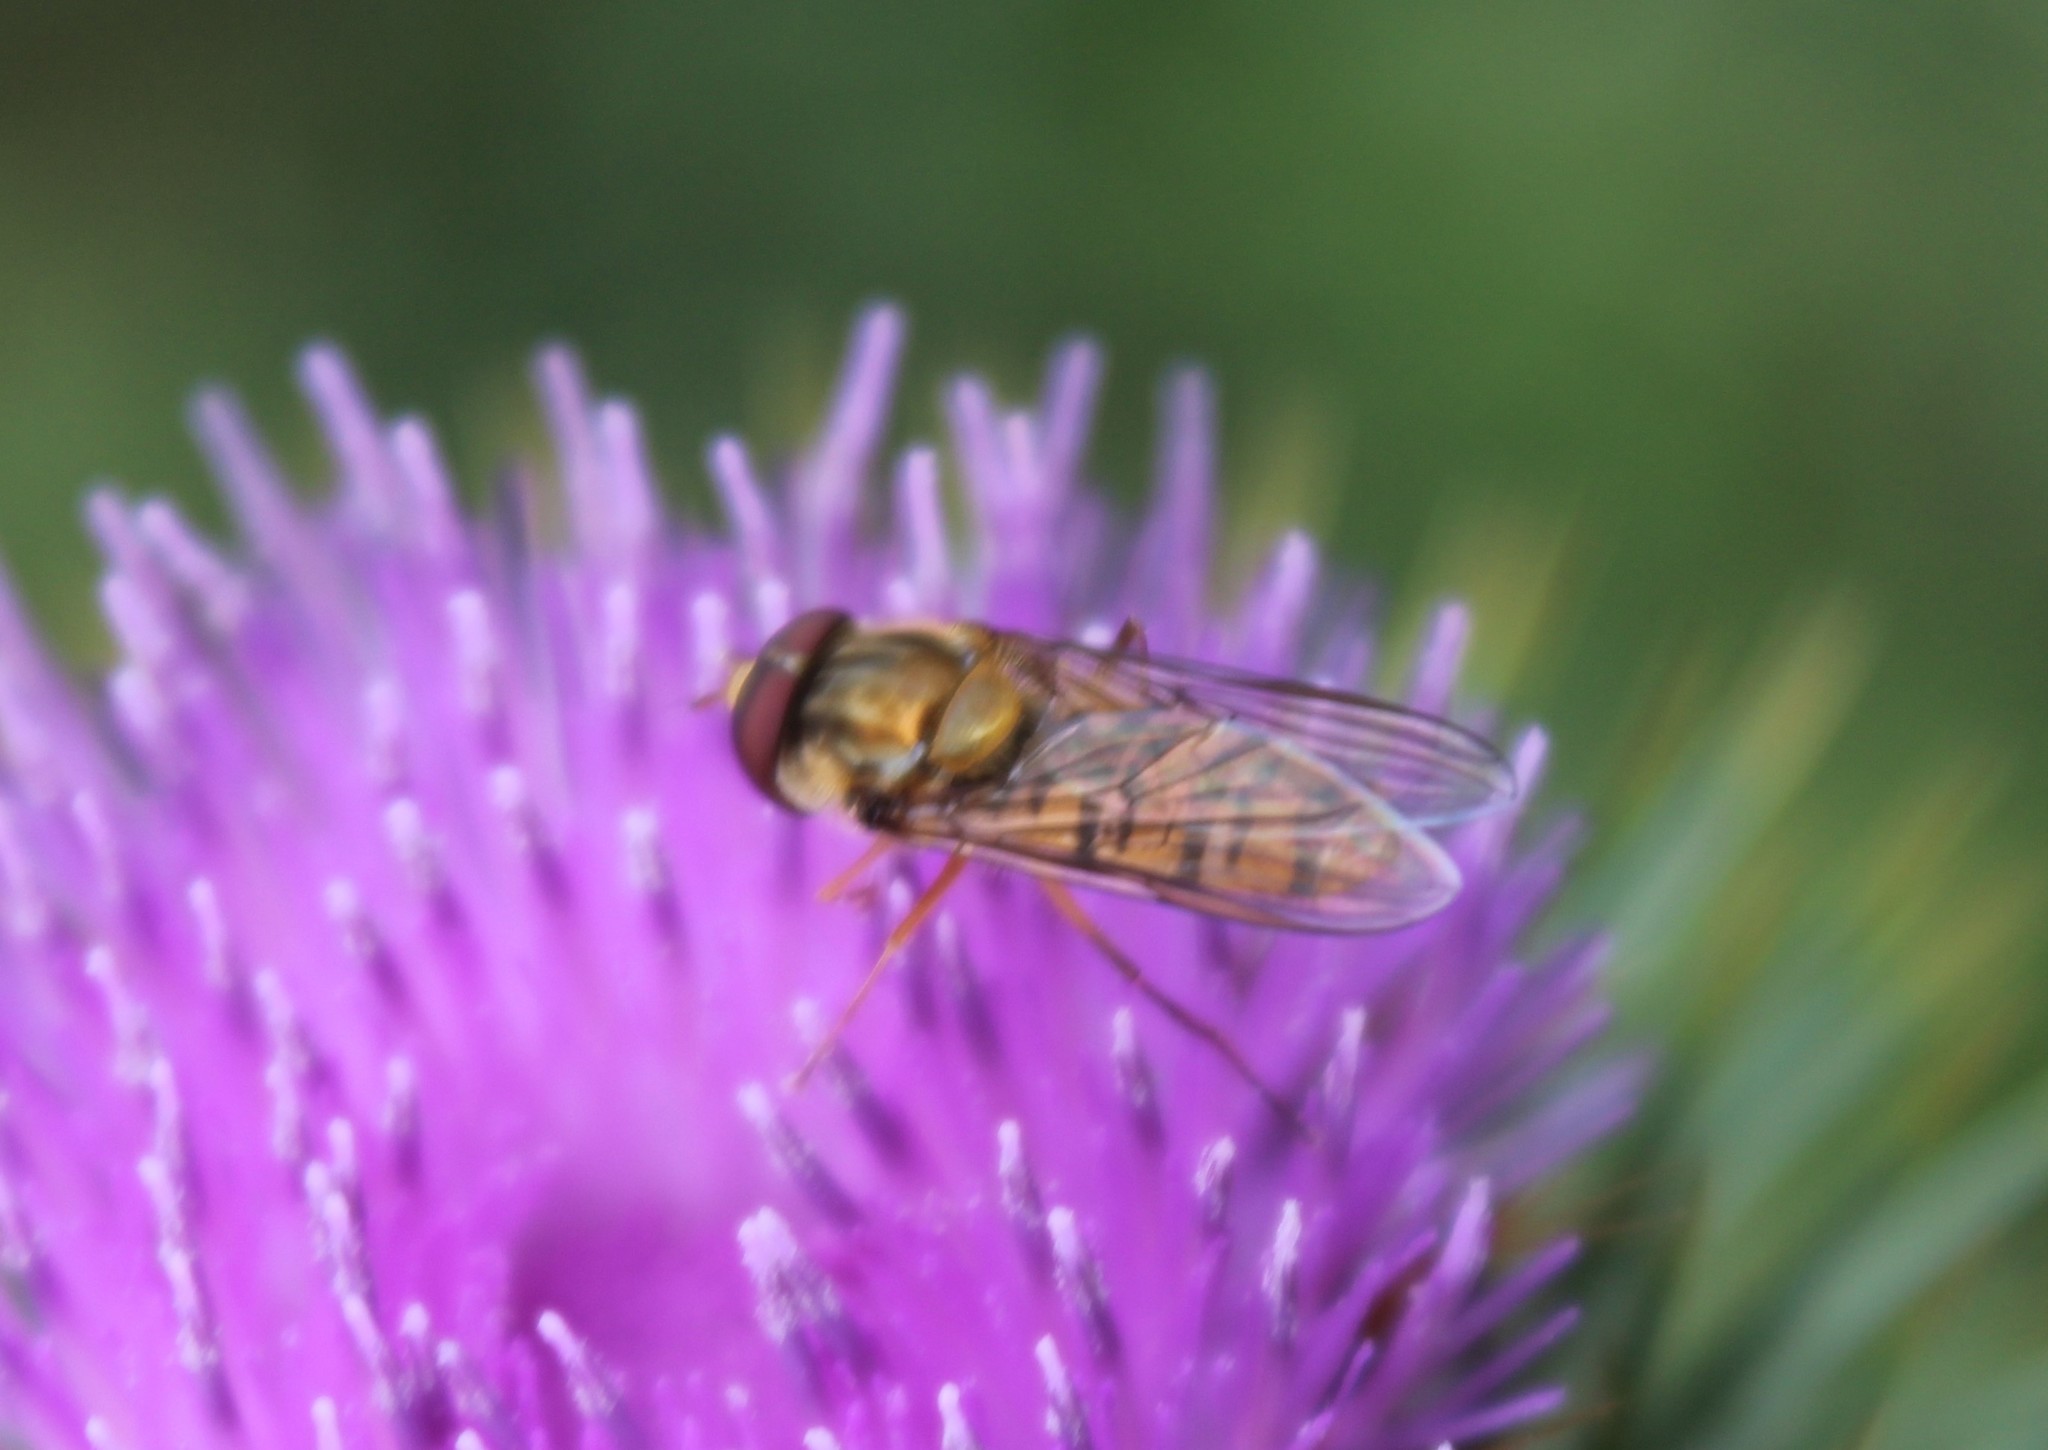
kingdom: Animalia
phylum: Arthropoda
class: Insecta
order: Diptera
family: Syrphidae
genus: Episyrphus
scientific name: Episyrphus balteatus
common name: Marmalade hoverfly
